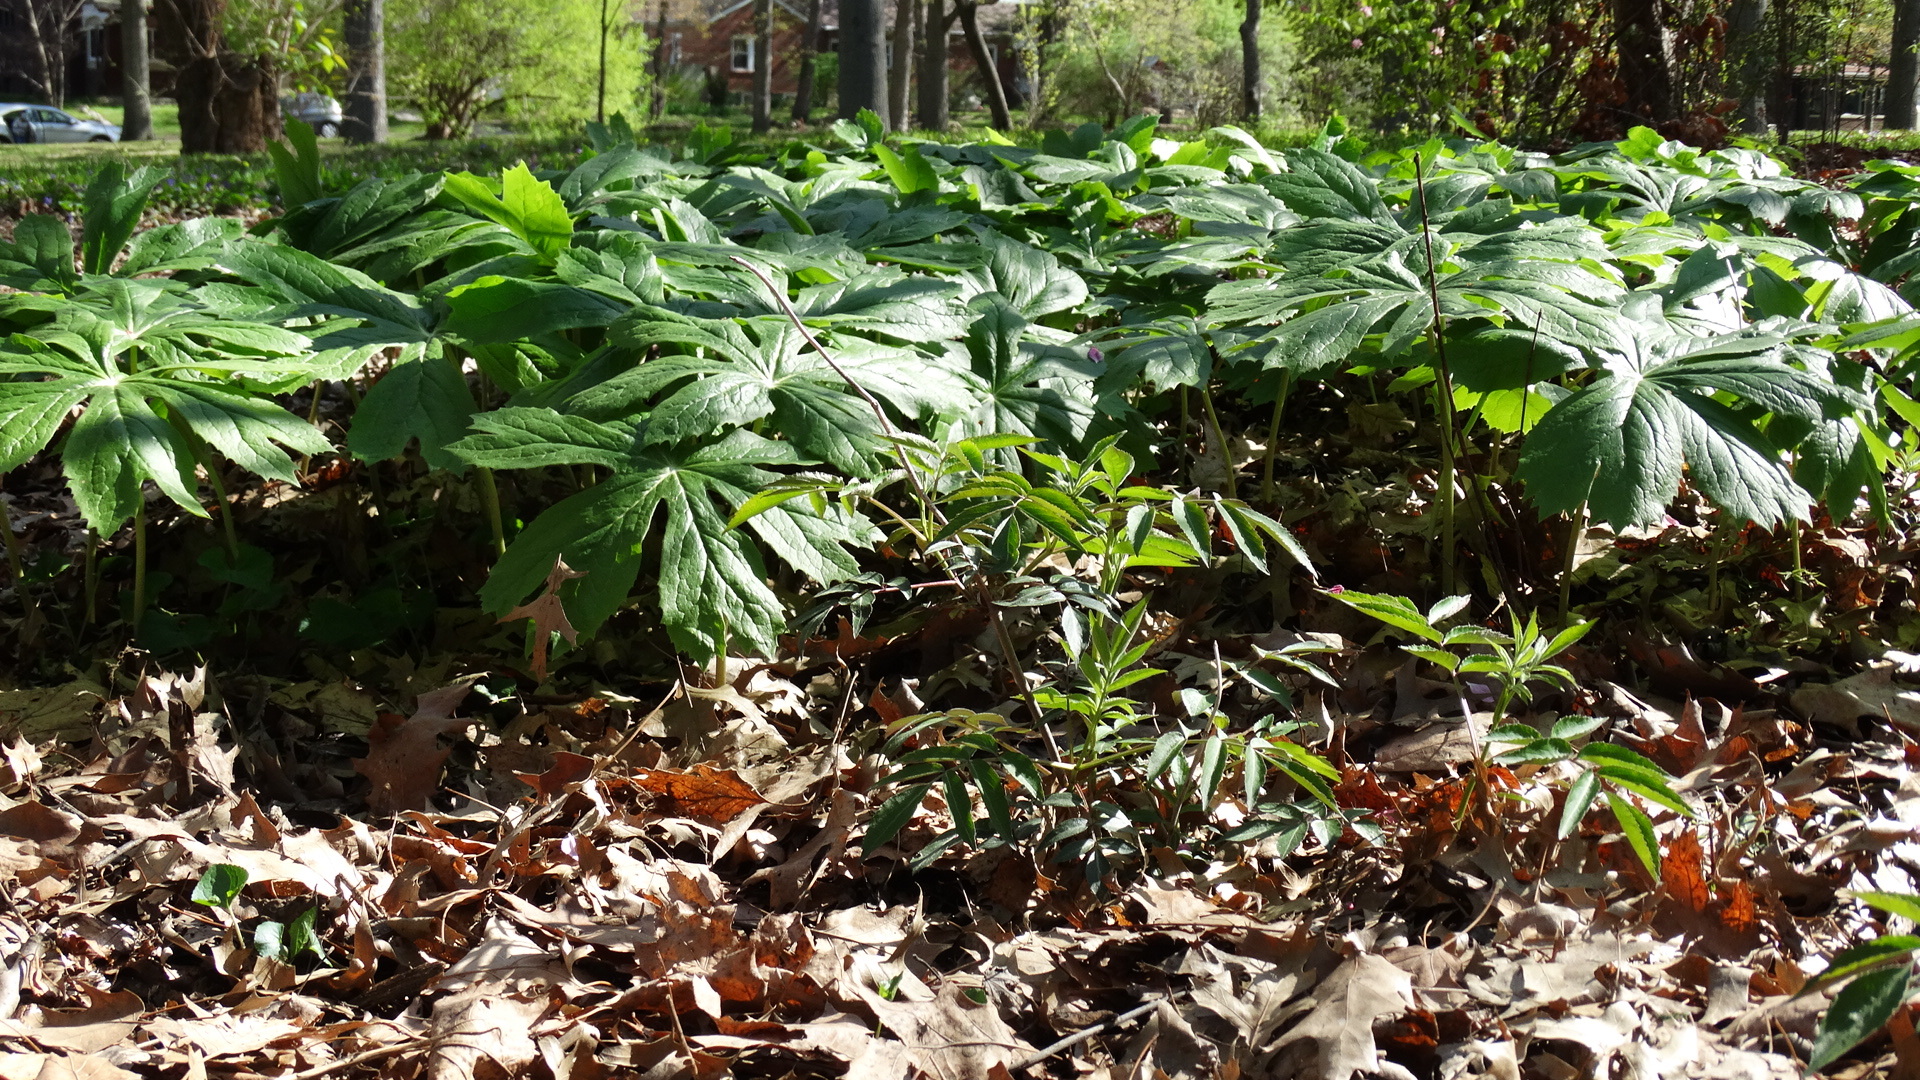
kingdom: Plantae
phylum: Tracheophyta
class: Magnoliopsida
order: Ranunculales
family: Berberidaceae
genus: Podophyllum
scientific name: Podophyllum peltatum
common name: Wild mandrake
